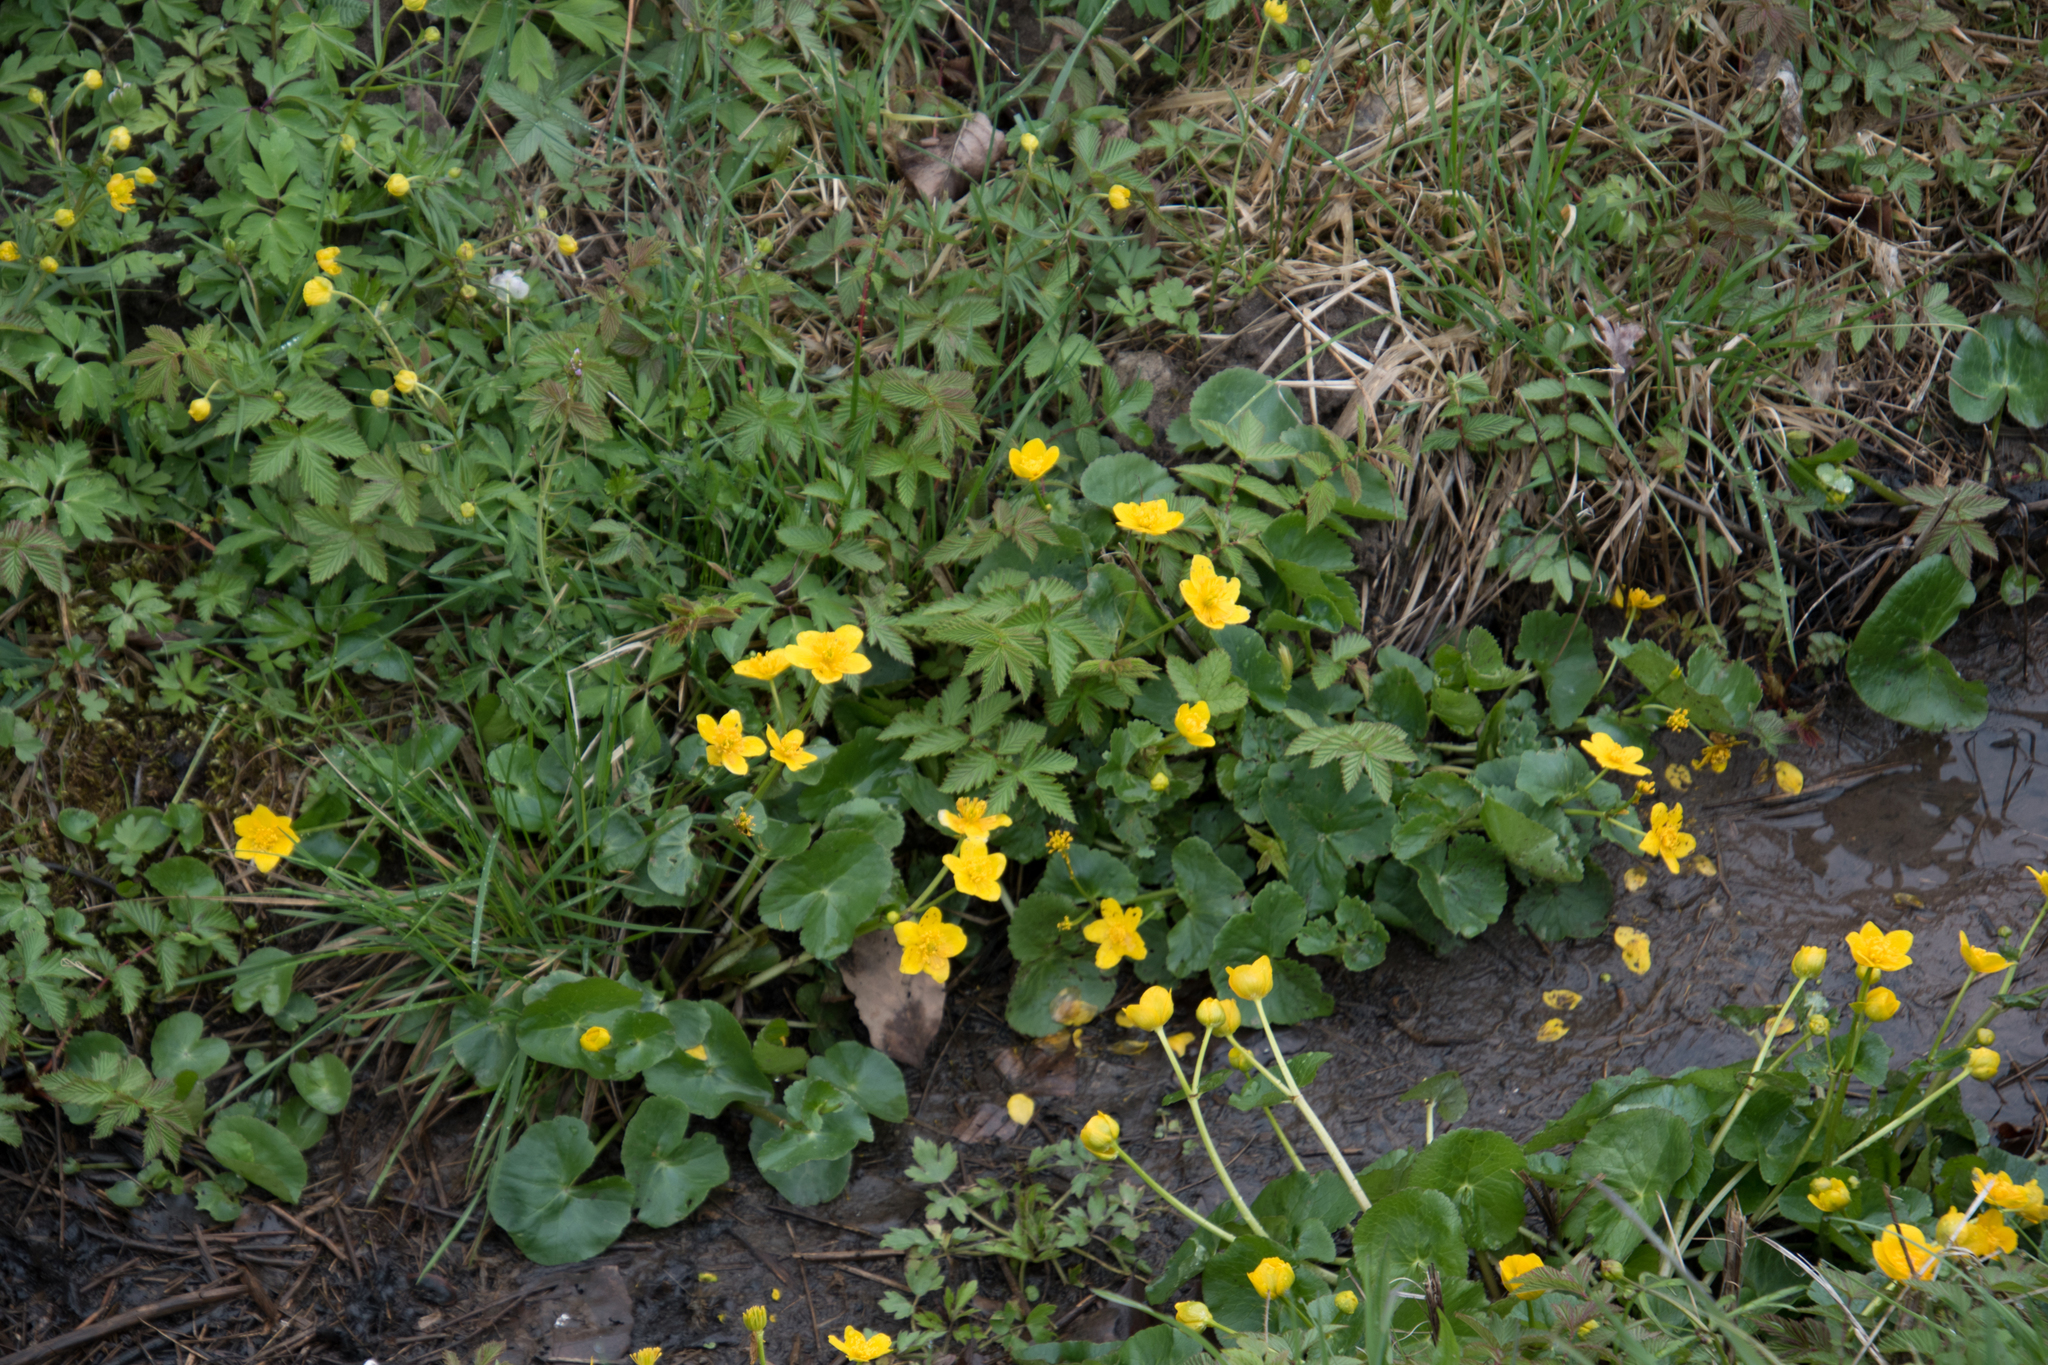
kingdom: Plantae
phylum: Tracheophyta
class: Magnoliopsida
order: Ranunculales
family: Ranunculaceae
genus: Caltha
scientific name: Caltha palustris
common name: Marsh marigold
